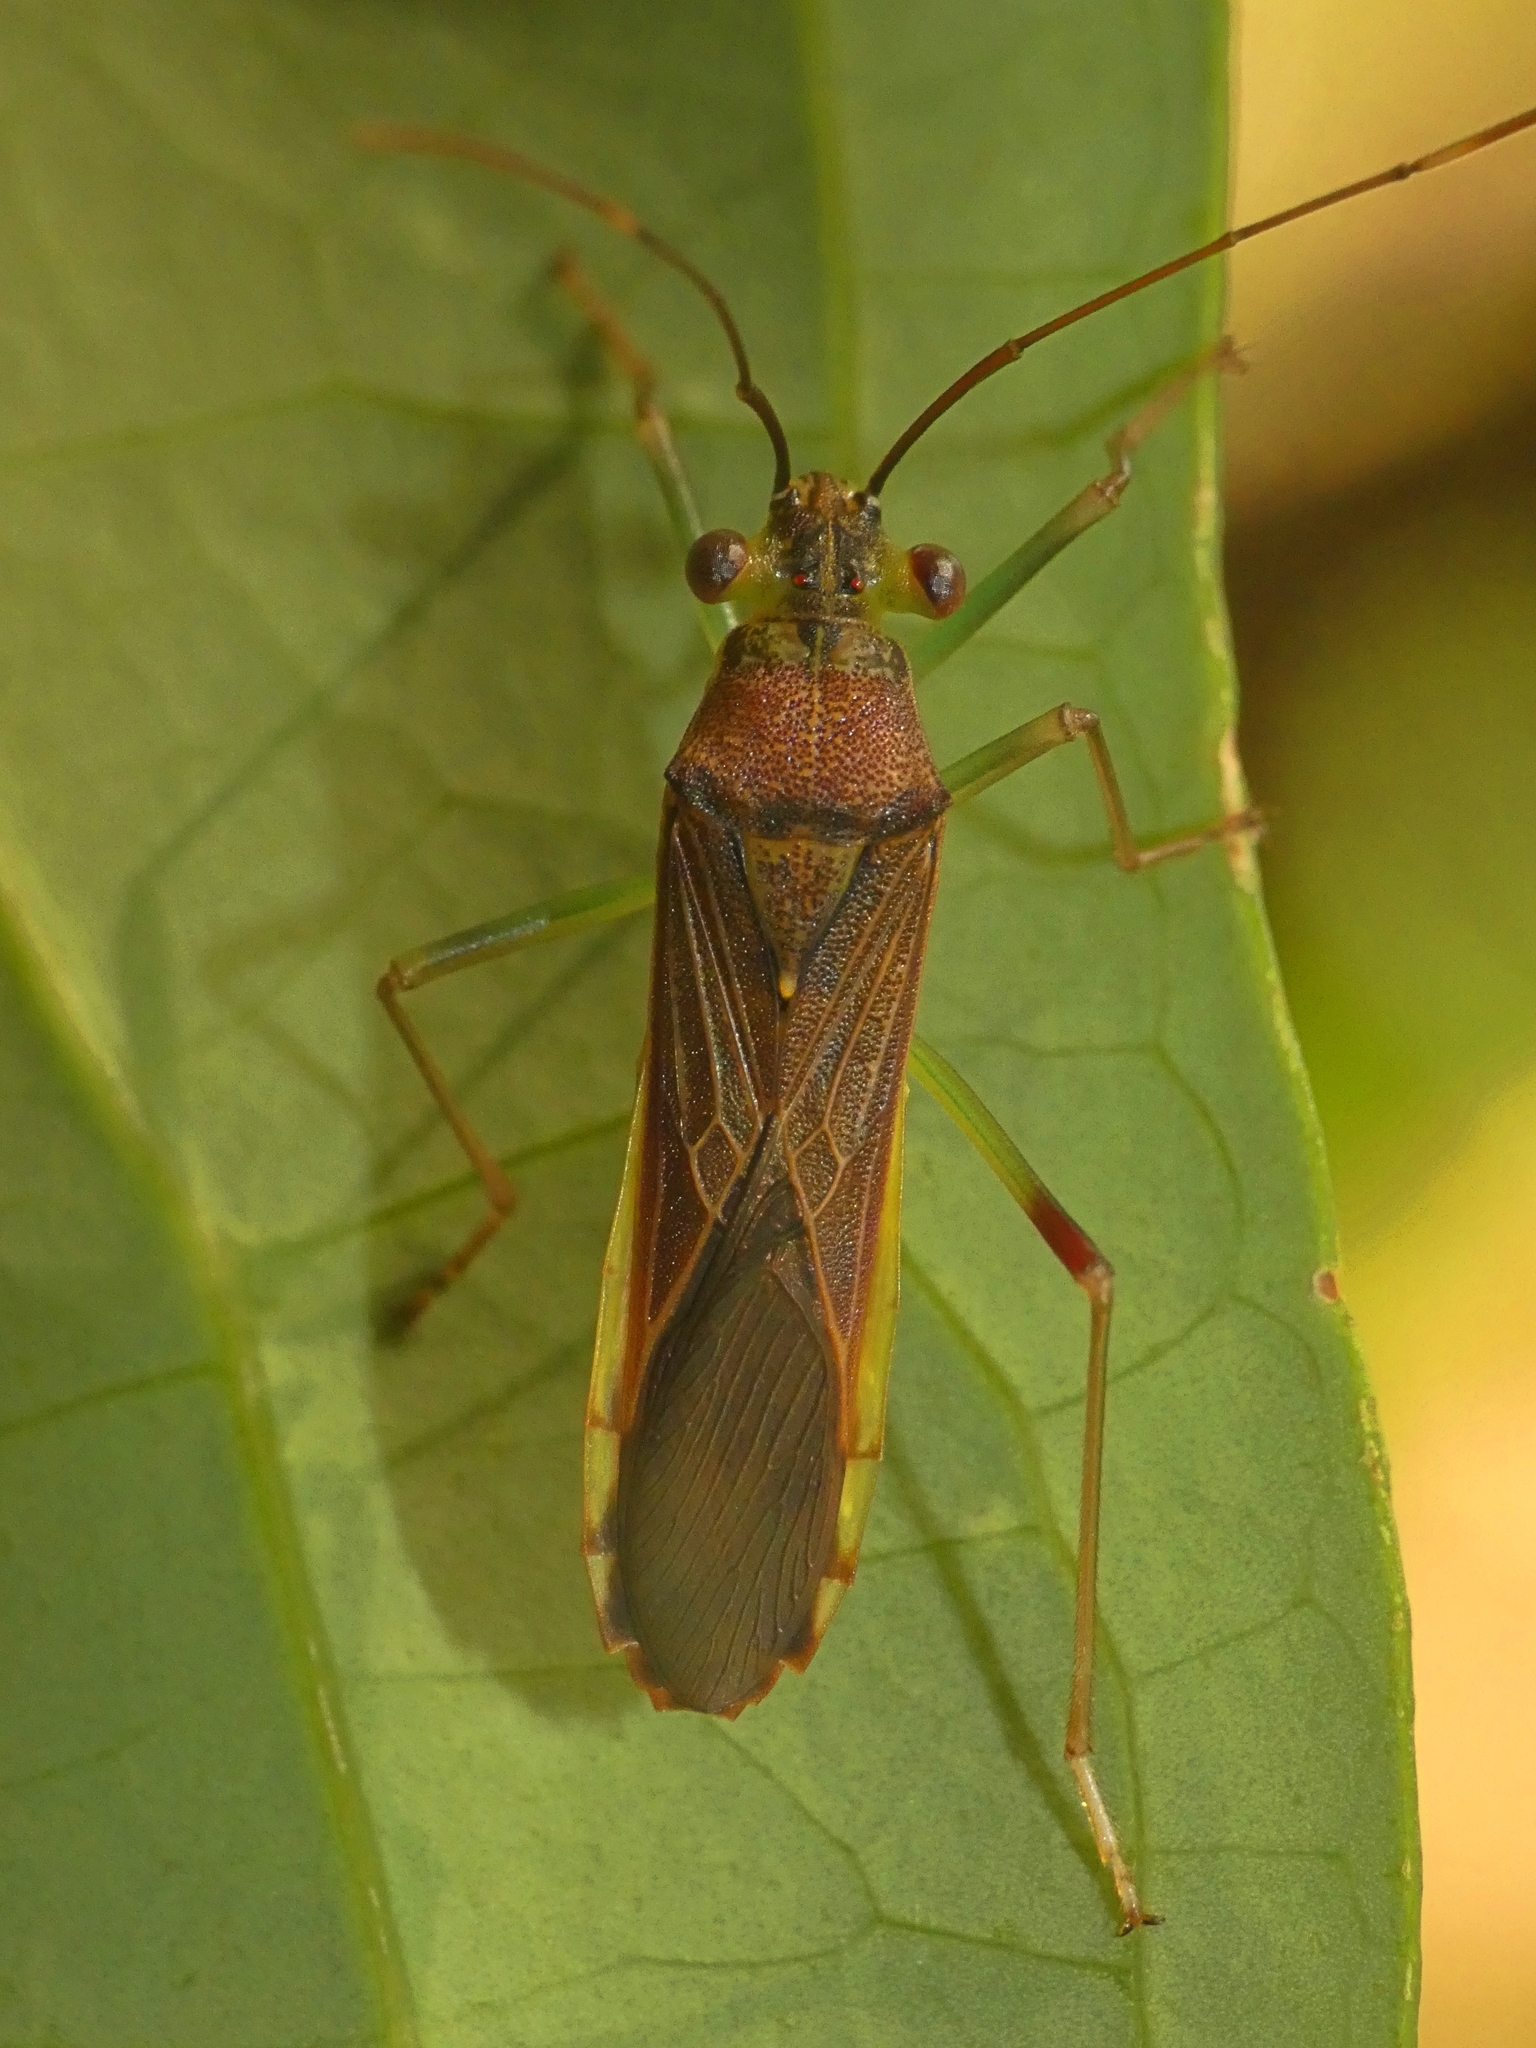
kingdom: Animalia
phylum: Arthropoda
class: Insecta
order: Hemiptera
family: Coreidae
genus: Piramurana
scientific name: Piramurana cyclops
